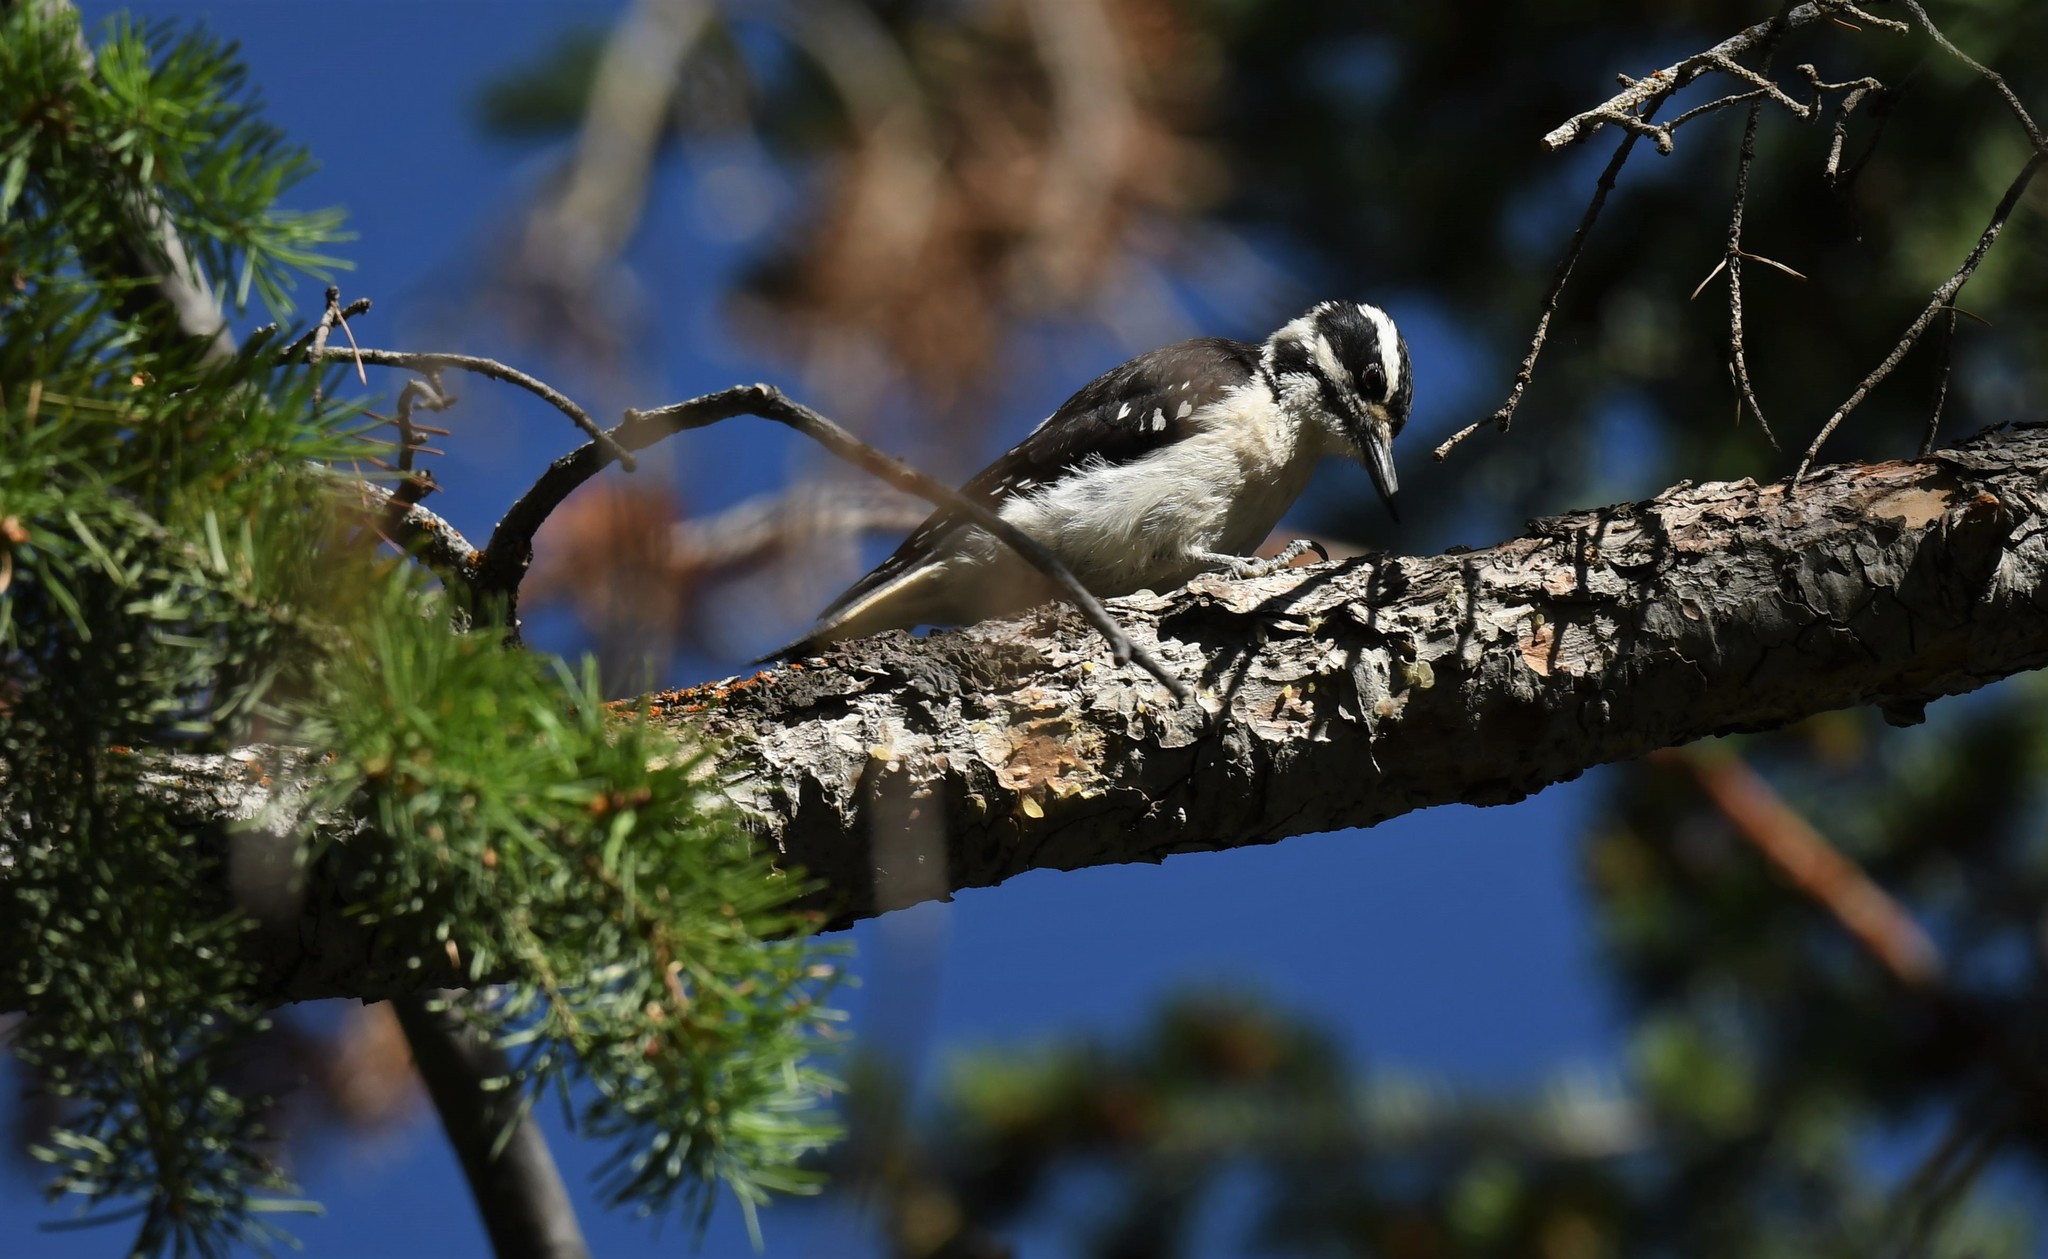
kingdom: Animalia
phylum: Chordata
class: Aves
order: Piciformes
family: Picidae
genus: Leuconotopicus
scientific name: Leuconotopicus villosus
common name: Hairy woodpecker
